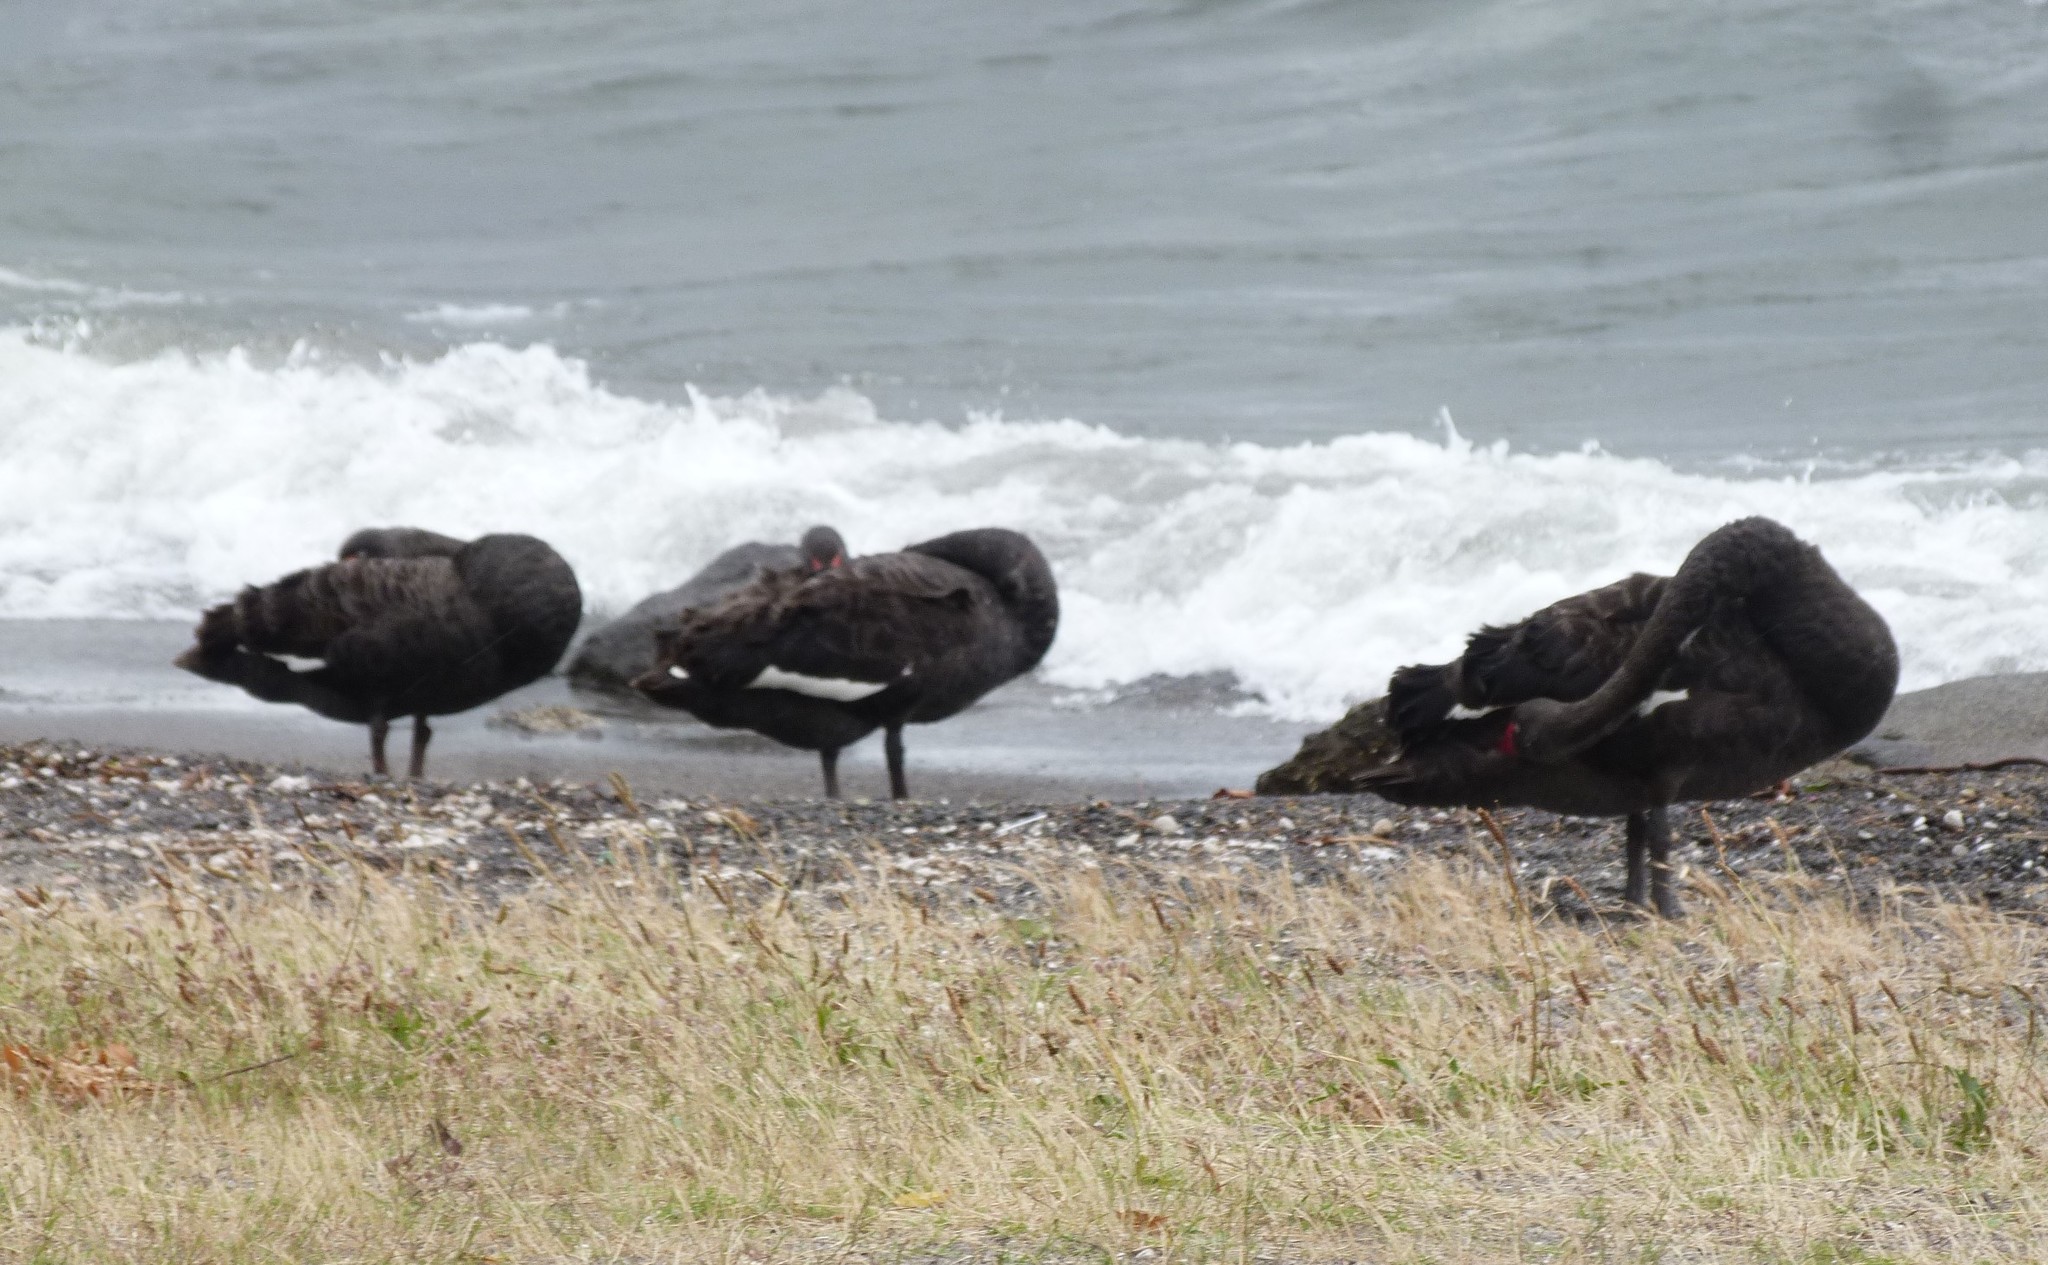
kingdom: Animalia
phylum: Chordata
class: Aves
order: Anseriformes
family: Anatidae
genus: Cygnus
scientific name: Cygnus atratus
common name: Black swan
